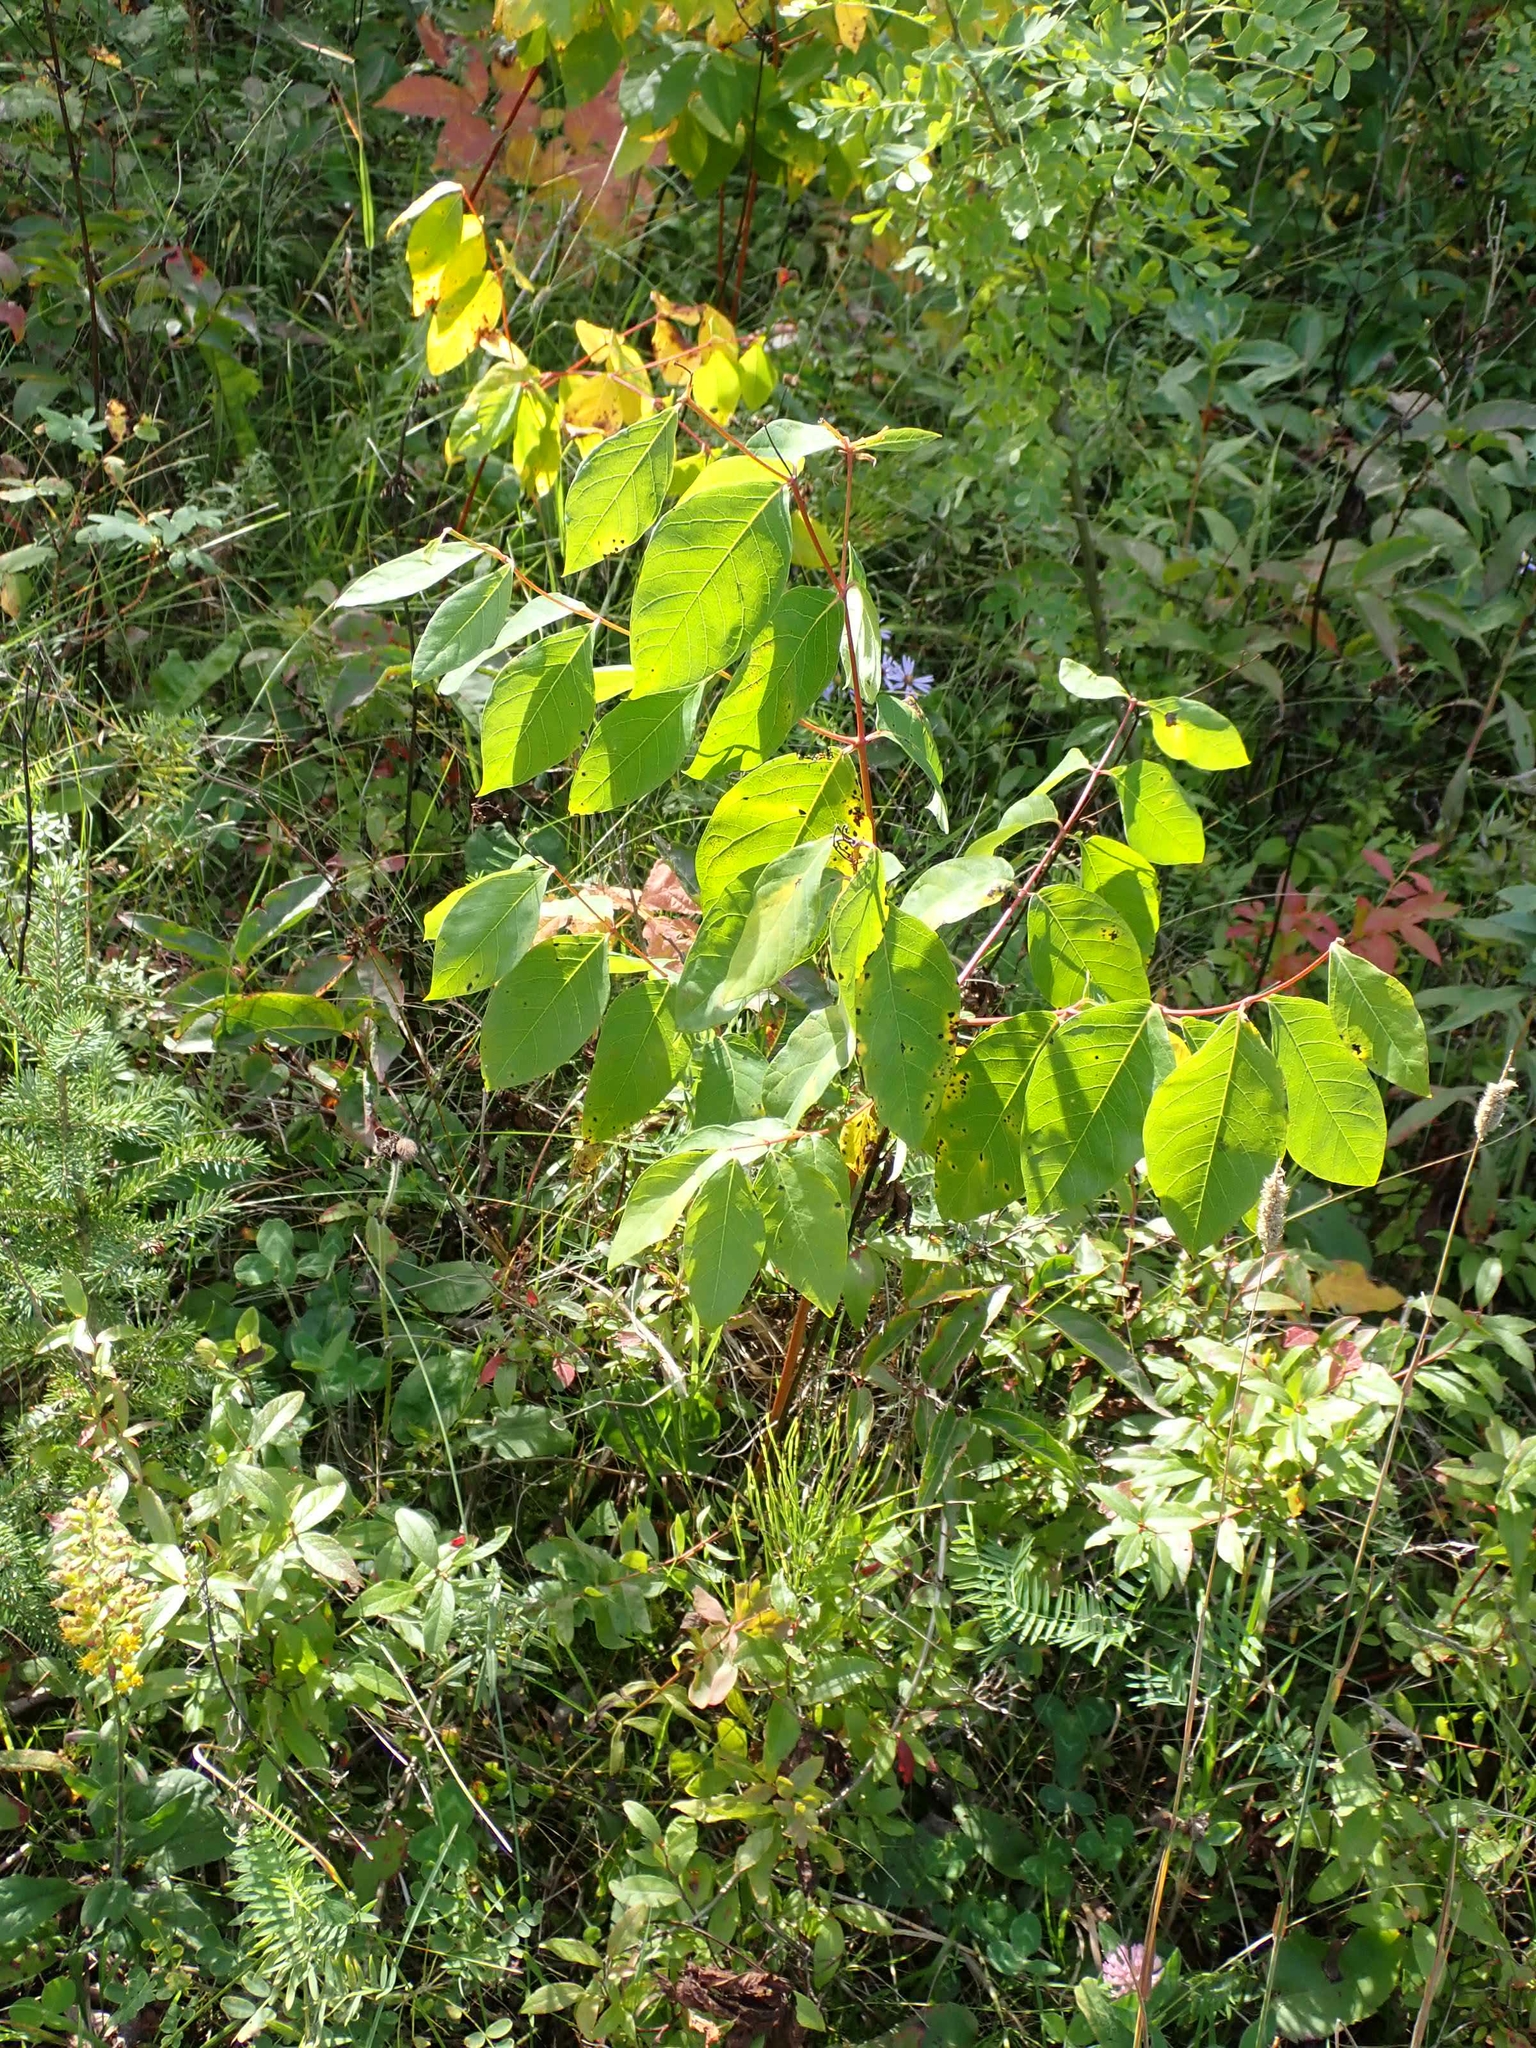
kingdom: Plantae
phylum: Tracheophyta
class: Magnoliopsida
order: Gentianales
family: Apocynaceae
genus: Apocynum
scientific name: Apocynum androsaemifolium
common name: Spreading dogbane
